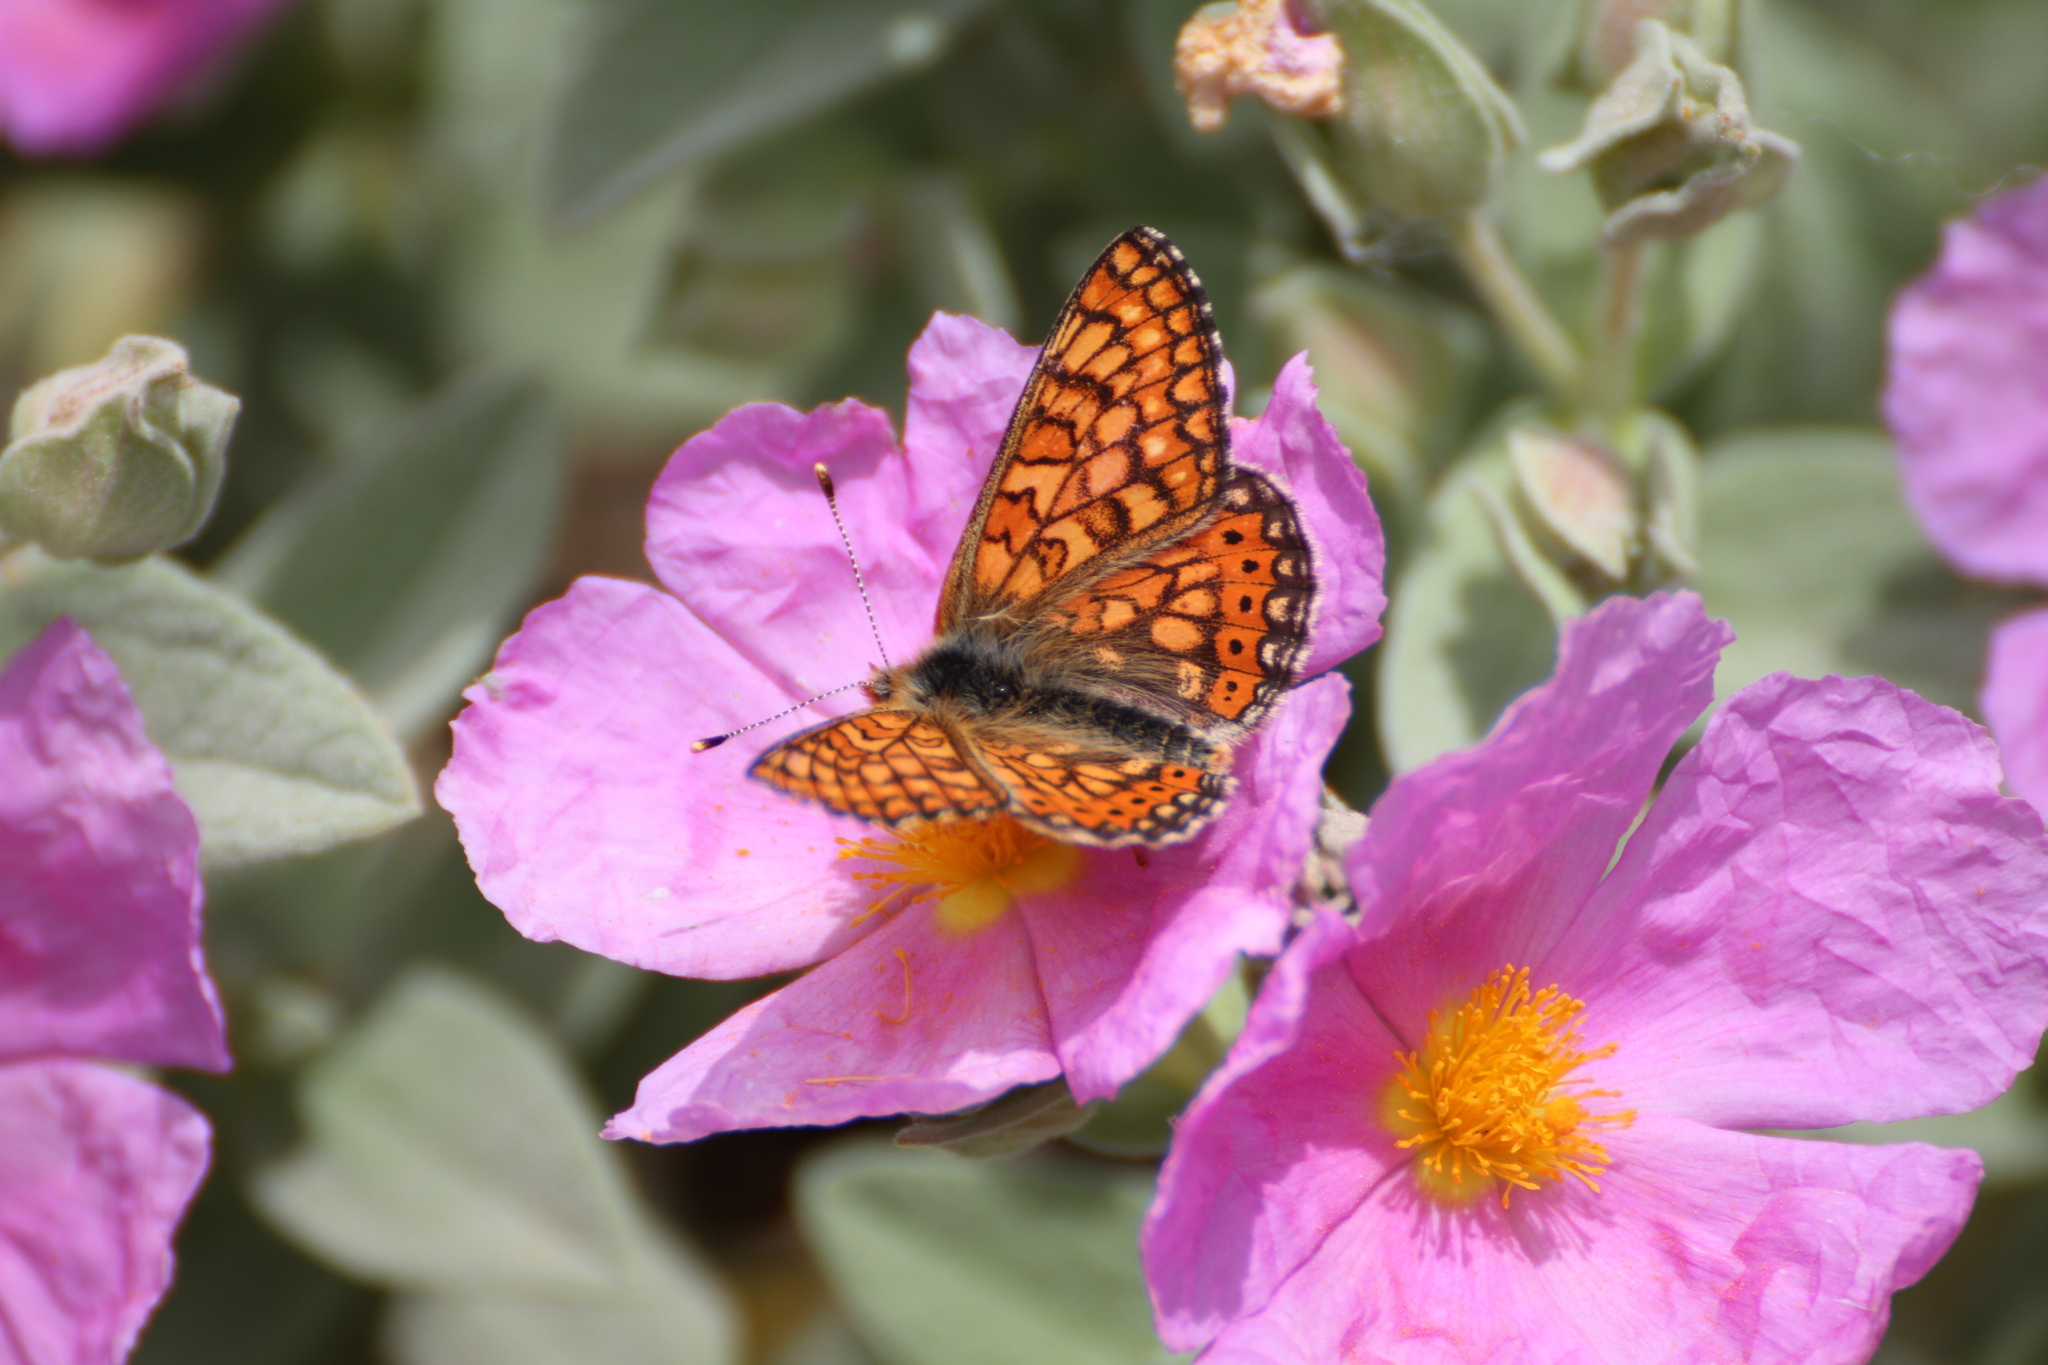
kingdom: Animalia
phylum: Arthropoda
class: Insecta
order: Lepidoptera
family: Nymphalidae
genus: Euphydryas
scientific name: Euphydryas aurinia
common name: Marsh fritillary
